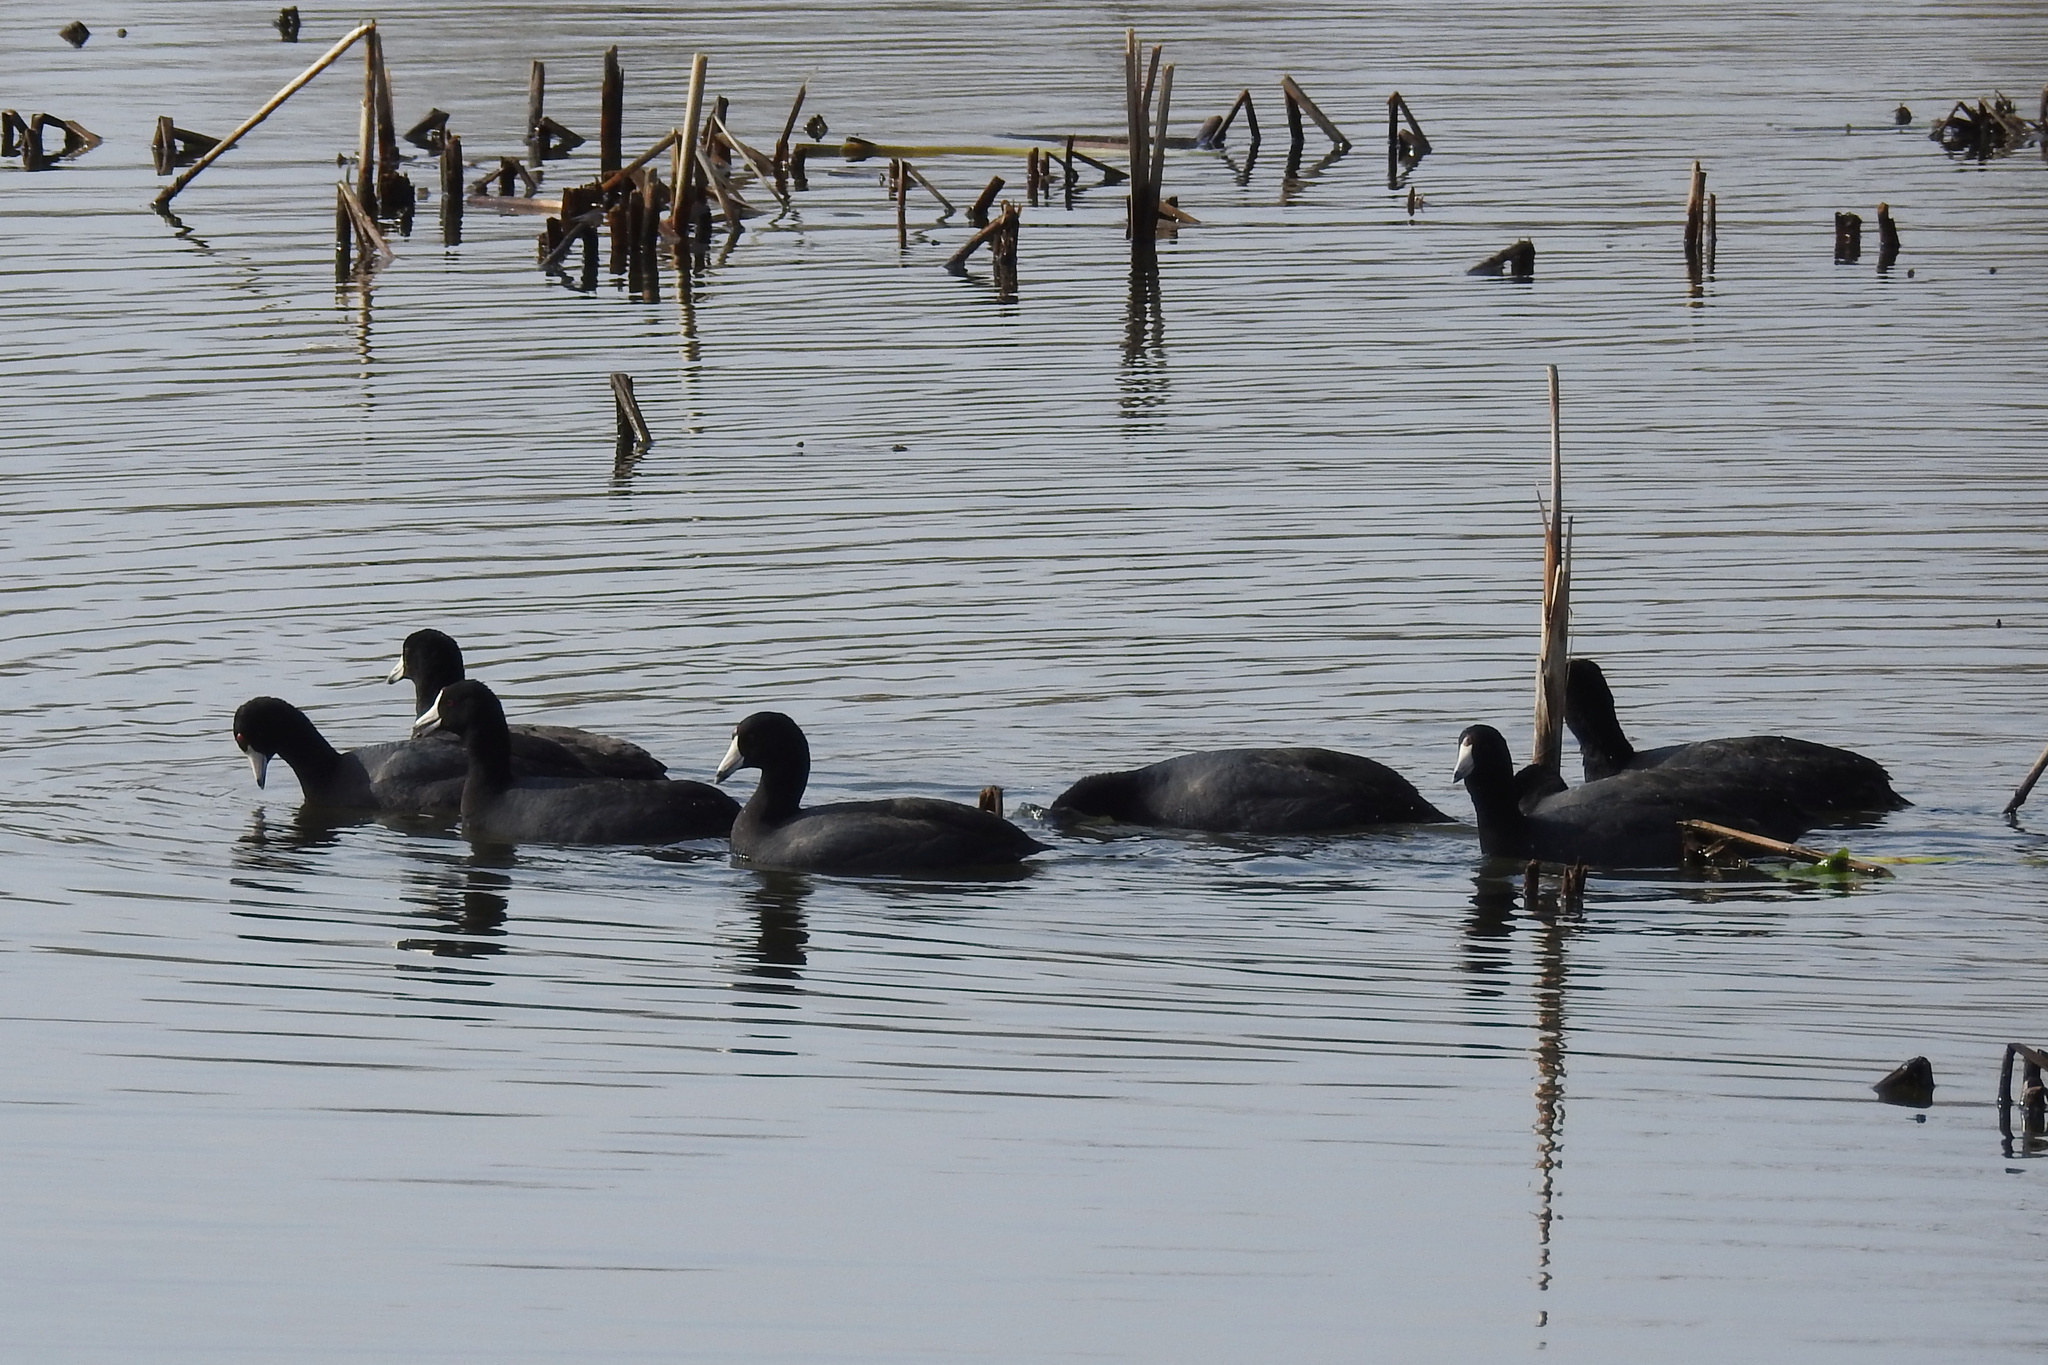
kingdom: Animalia
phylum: Chordata
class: Aves
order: Gruiformes
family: Rallidae
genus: Fulica
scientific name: Fulica americana
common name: American coot
